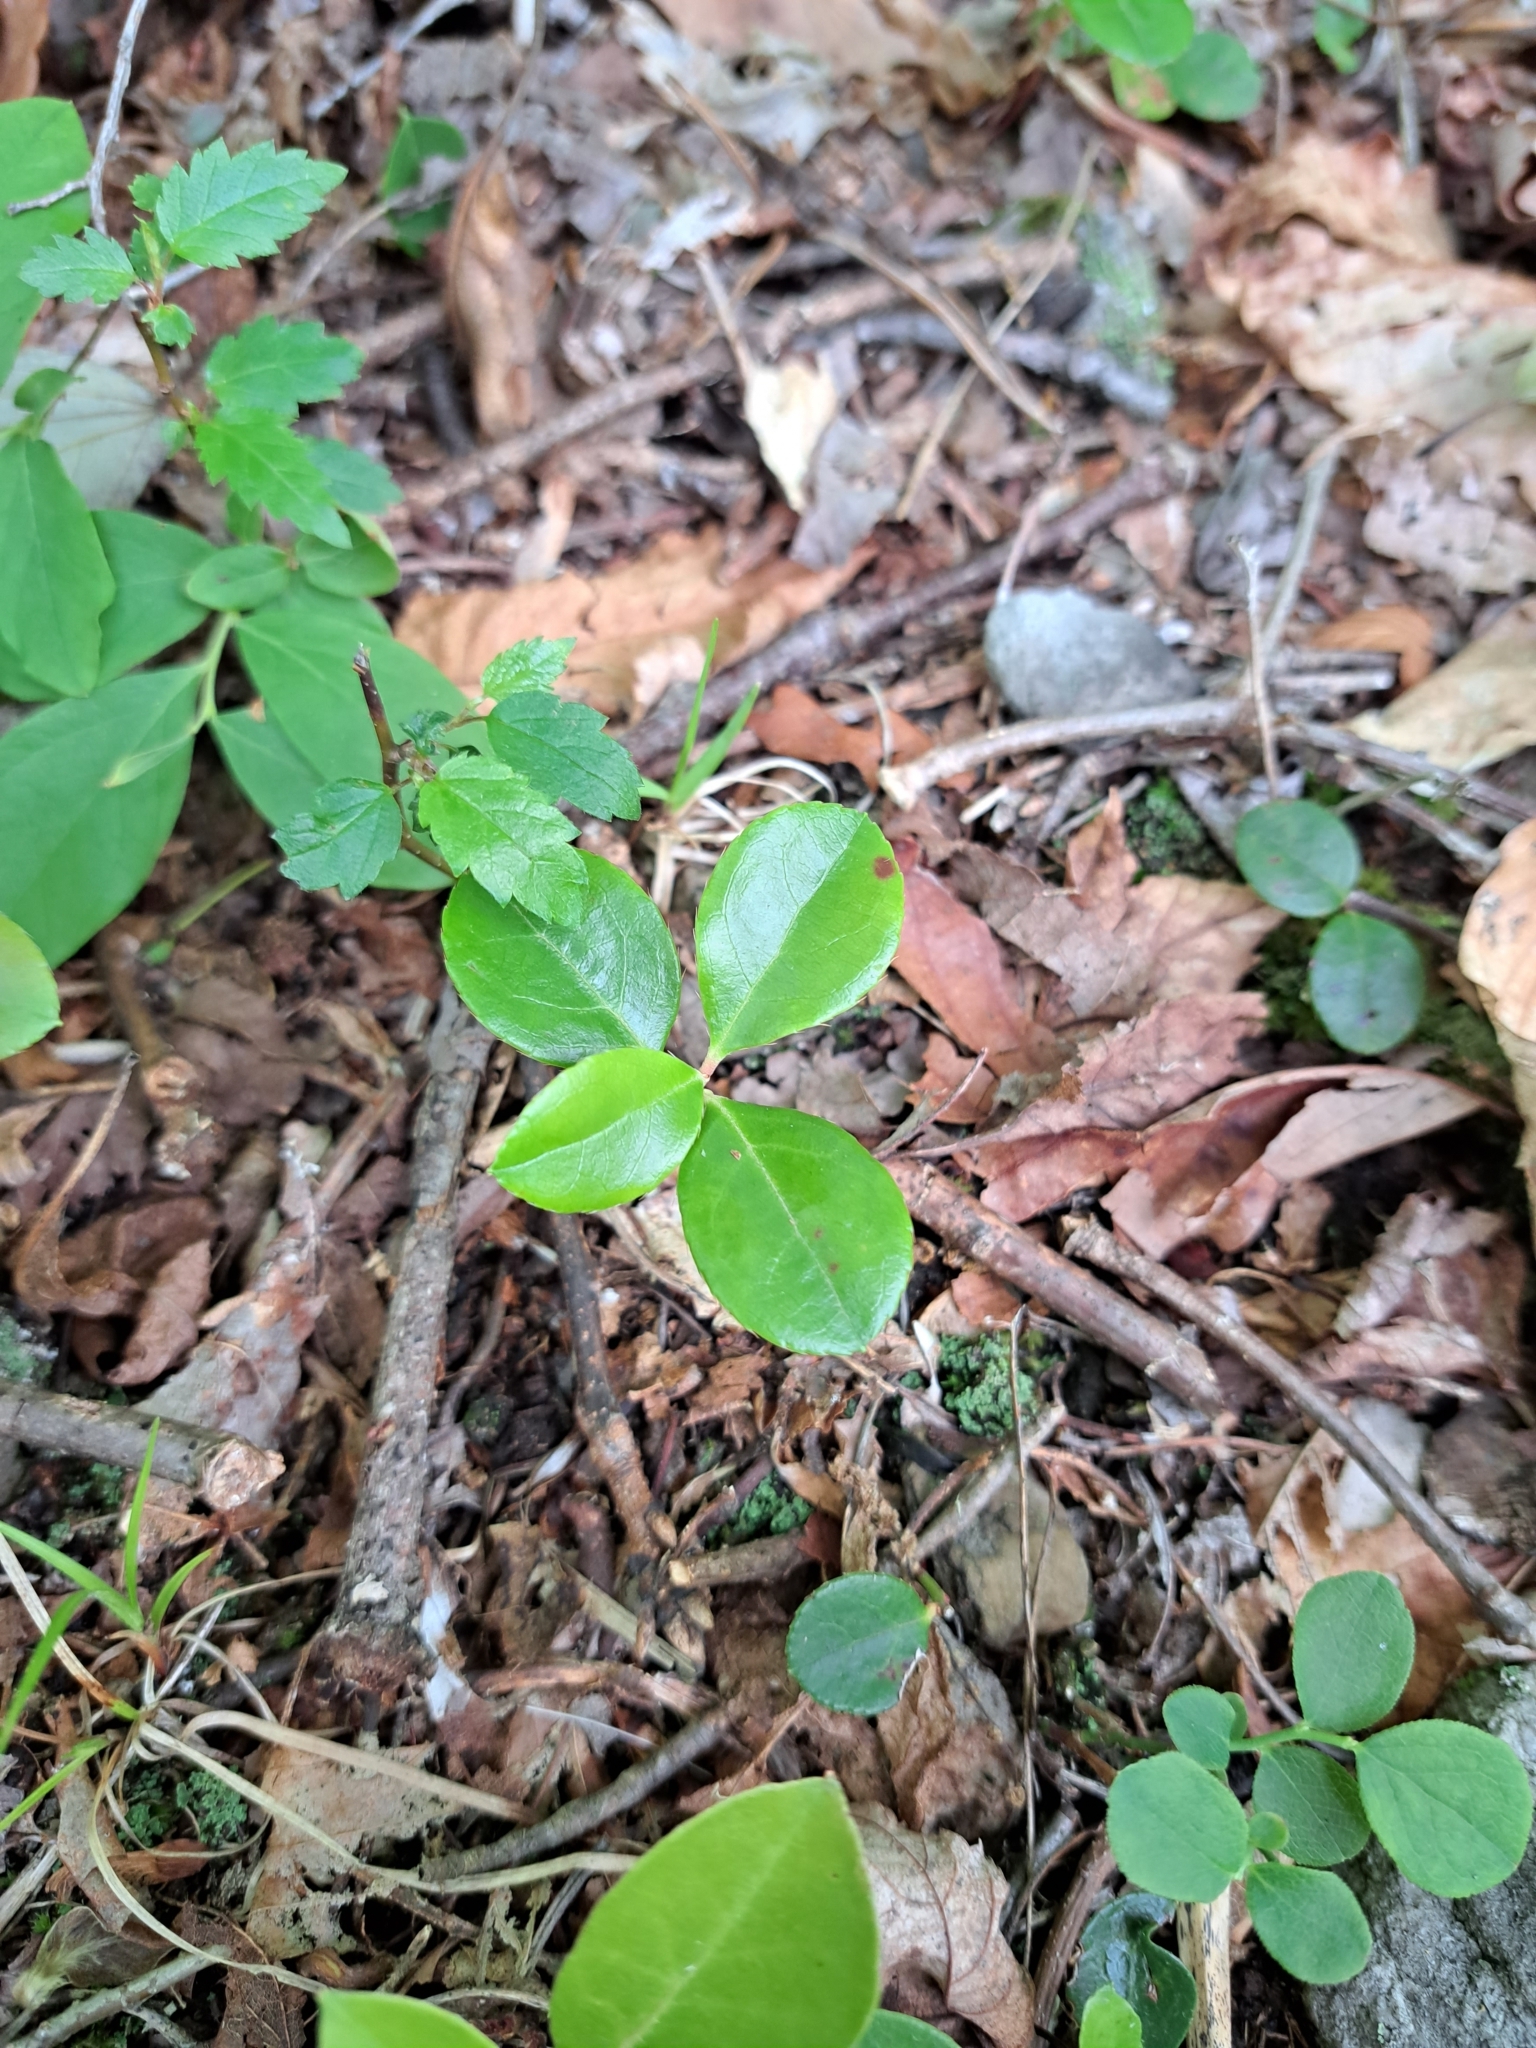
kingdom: Plantae
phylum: Tracheophyta
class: Magnoliopsida
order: Ericales
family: Ericaceae
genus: Gaultheria
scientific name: Gaultheria procumbens
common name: Checkerberry
